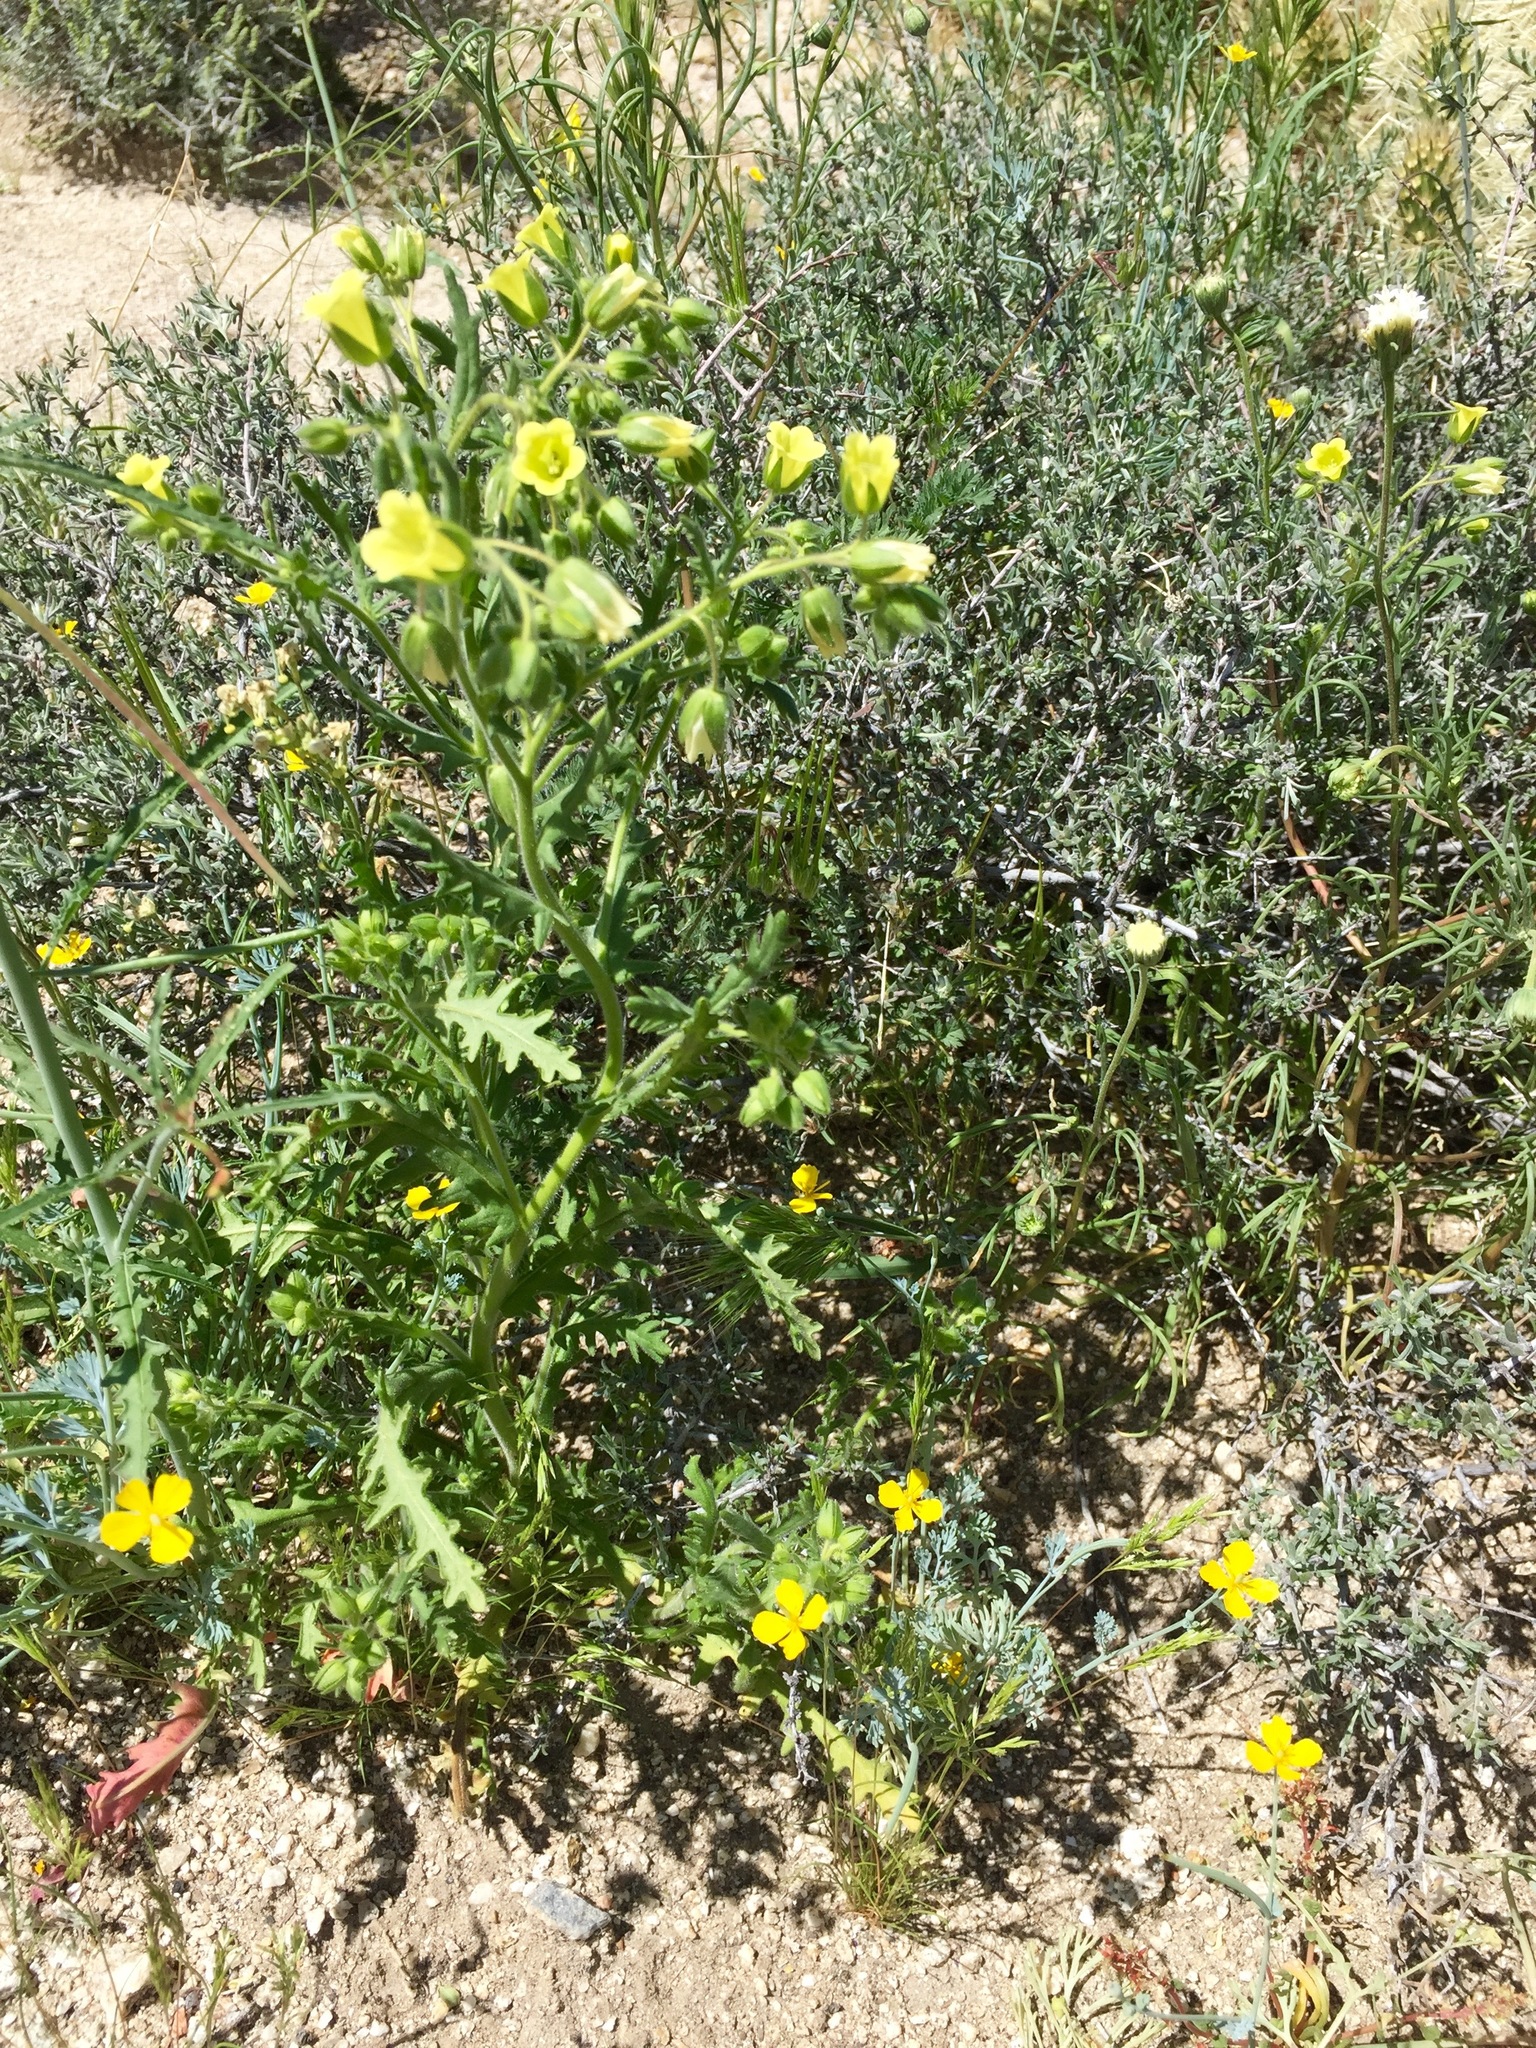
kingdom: Plantae
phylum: Tracheophyta
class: Magnoliopsida
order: Boraginales
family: Hydrophyllaceae
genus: Emmenanthe
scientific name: Emmenanthe penduliflora
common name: Whispering-bells
